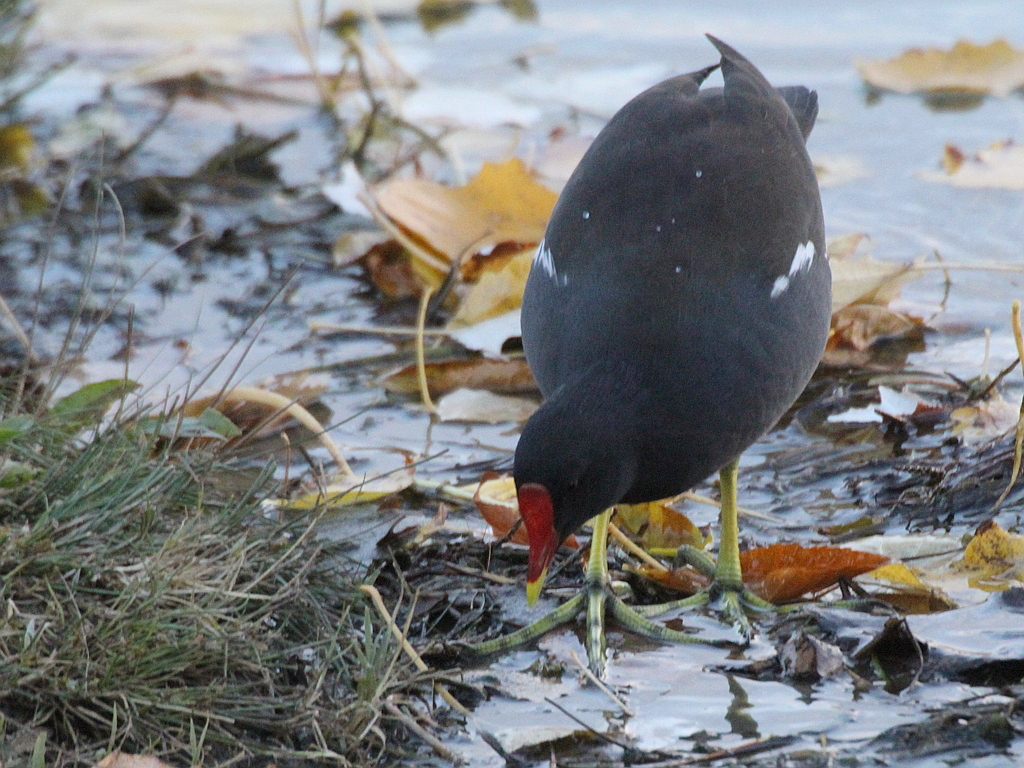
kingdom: Animalia
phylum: Chordata
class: Aves
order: Gruiformes
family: Rallidae
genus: Gallinula
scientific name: Gallinula chloropus
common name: Common moorhen
